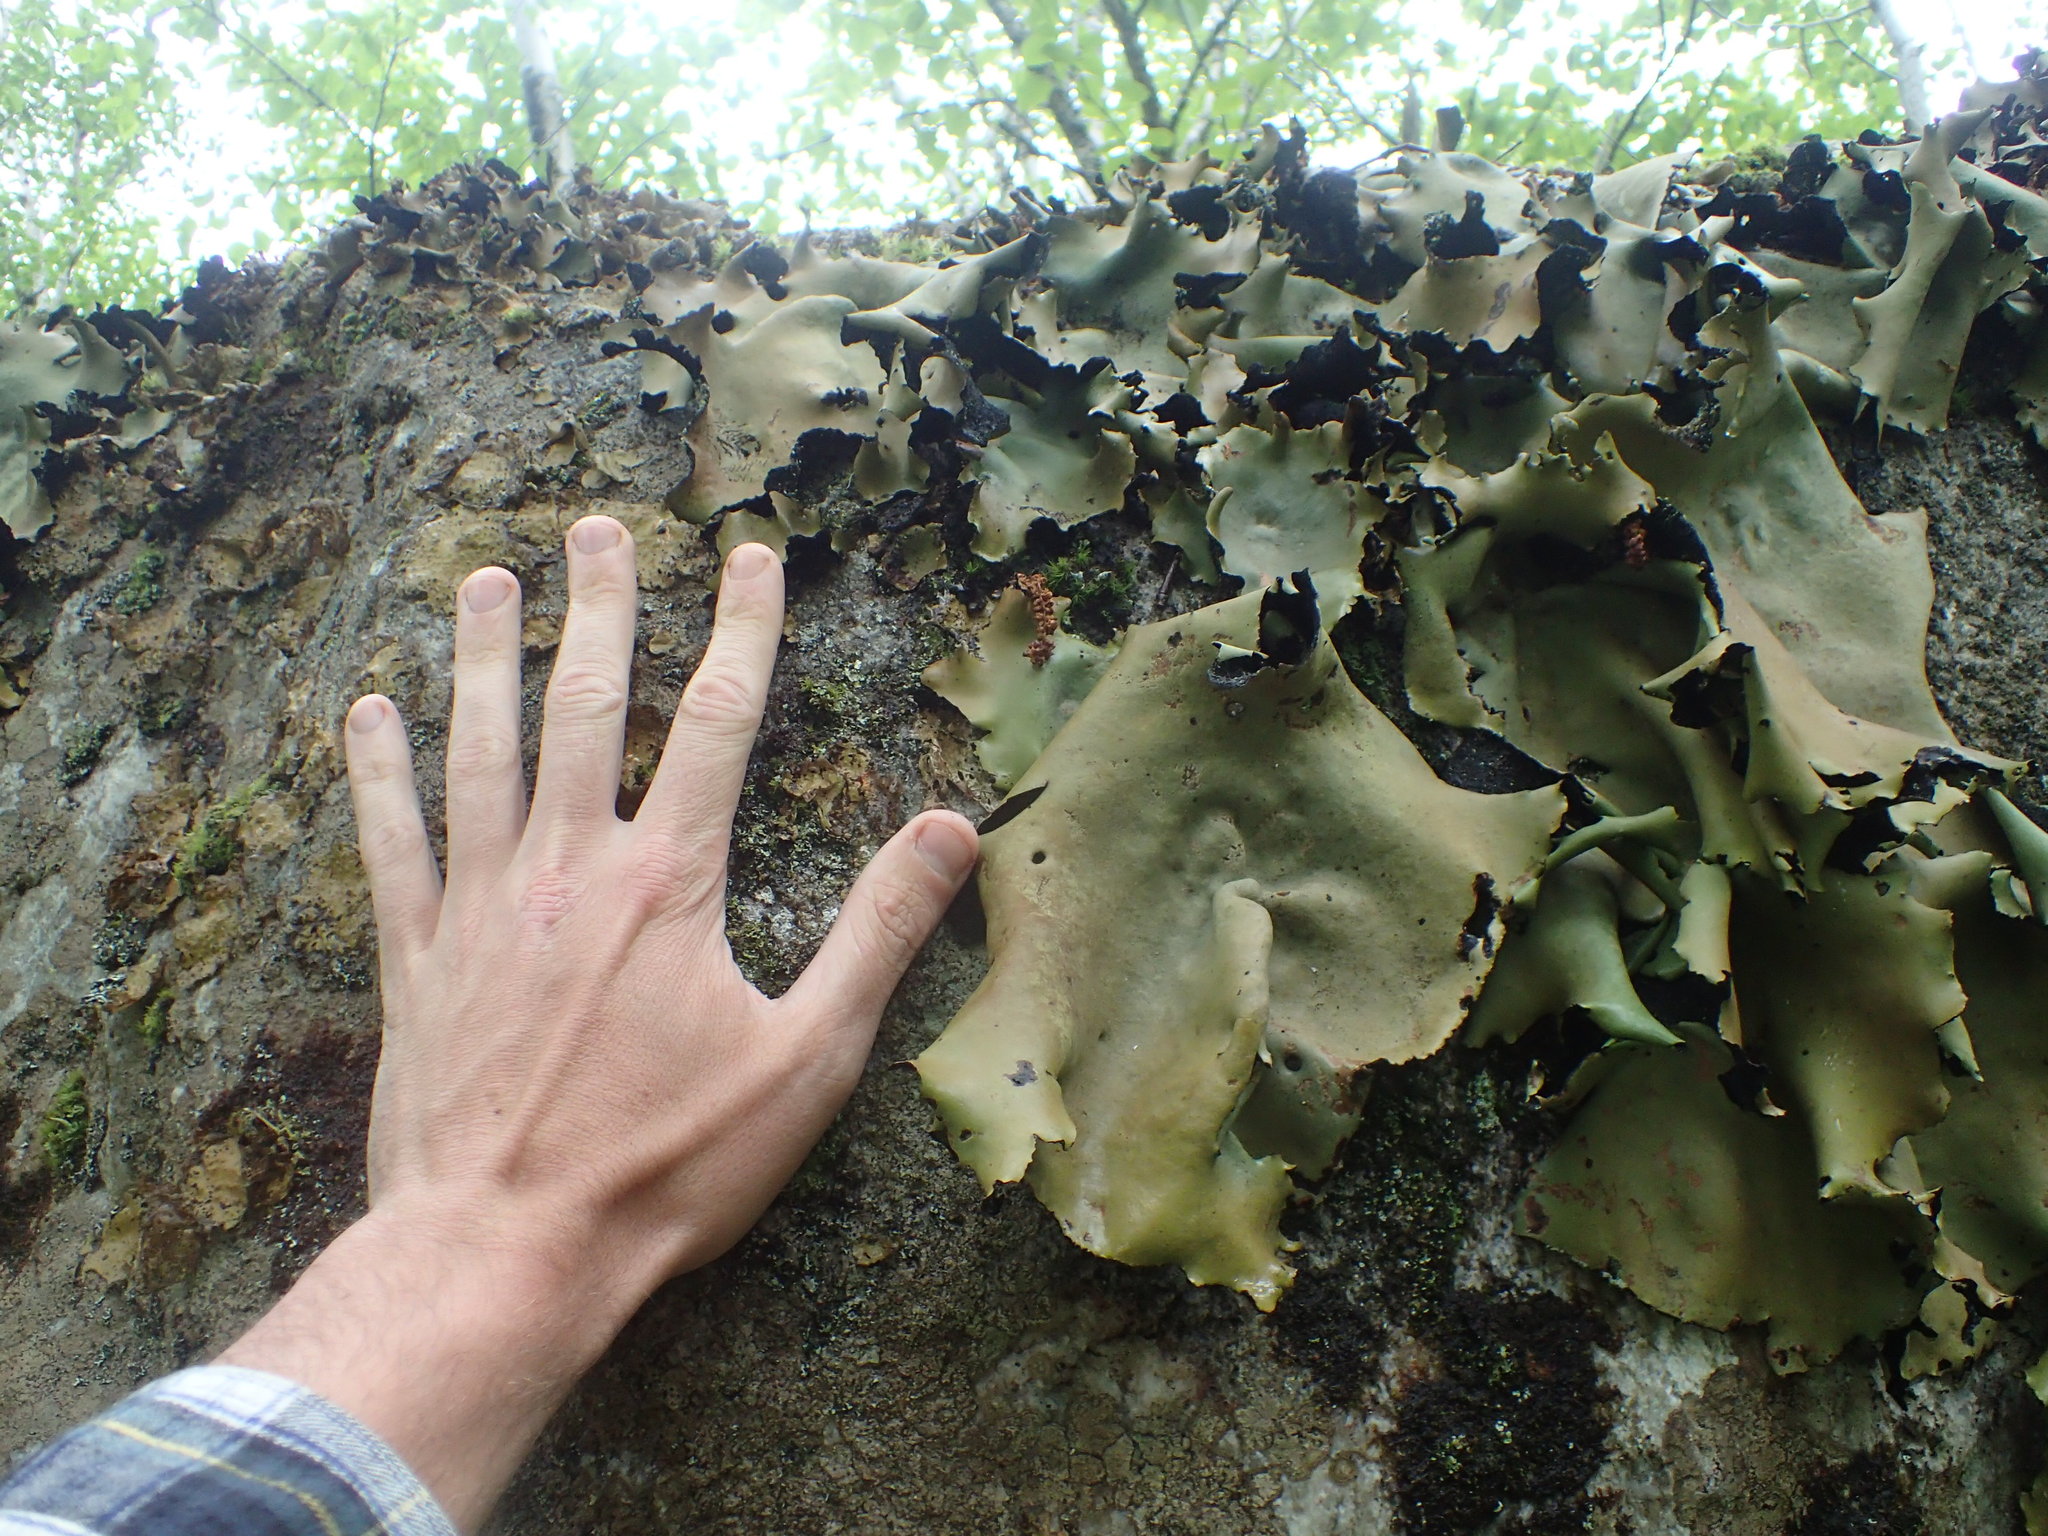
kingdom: Fungi
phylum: Ascomycota
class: Lecanoromycetes
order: Umbilicariales
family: Umbilicariaceae
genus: Umbilicaria
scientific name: Umbilicaria mammulata
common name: Smooth rock tripe
